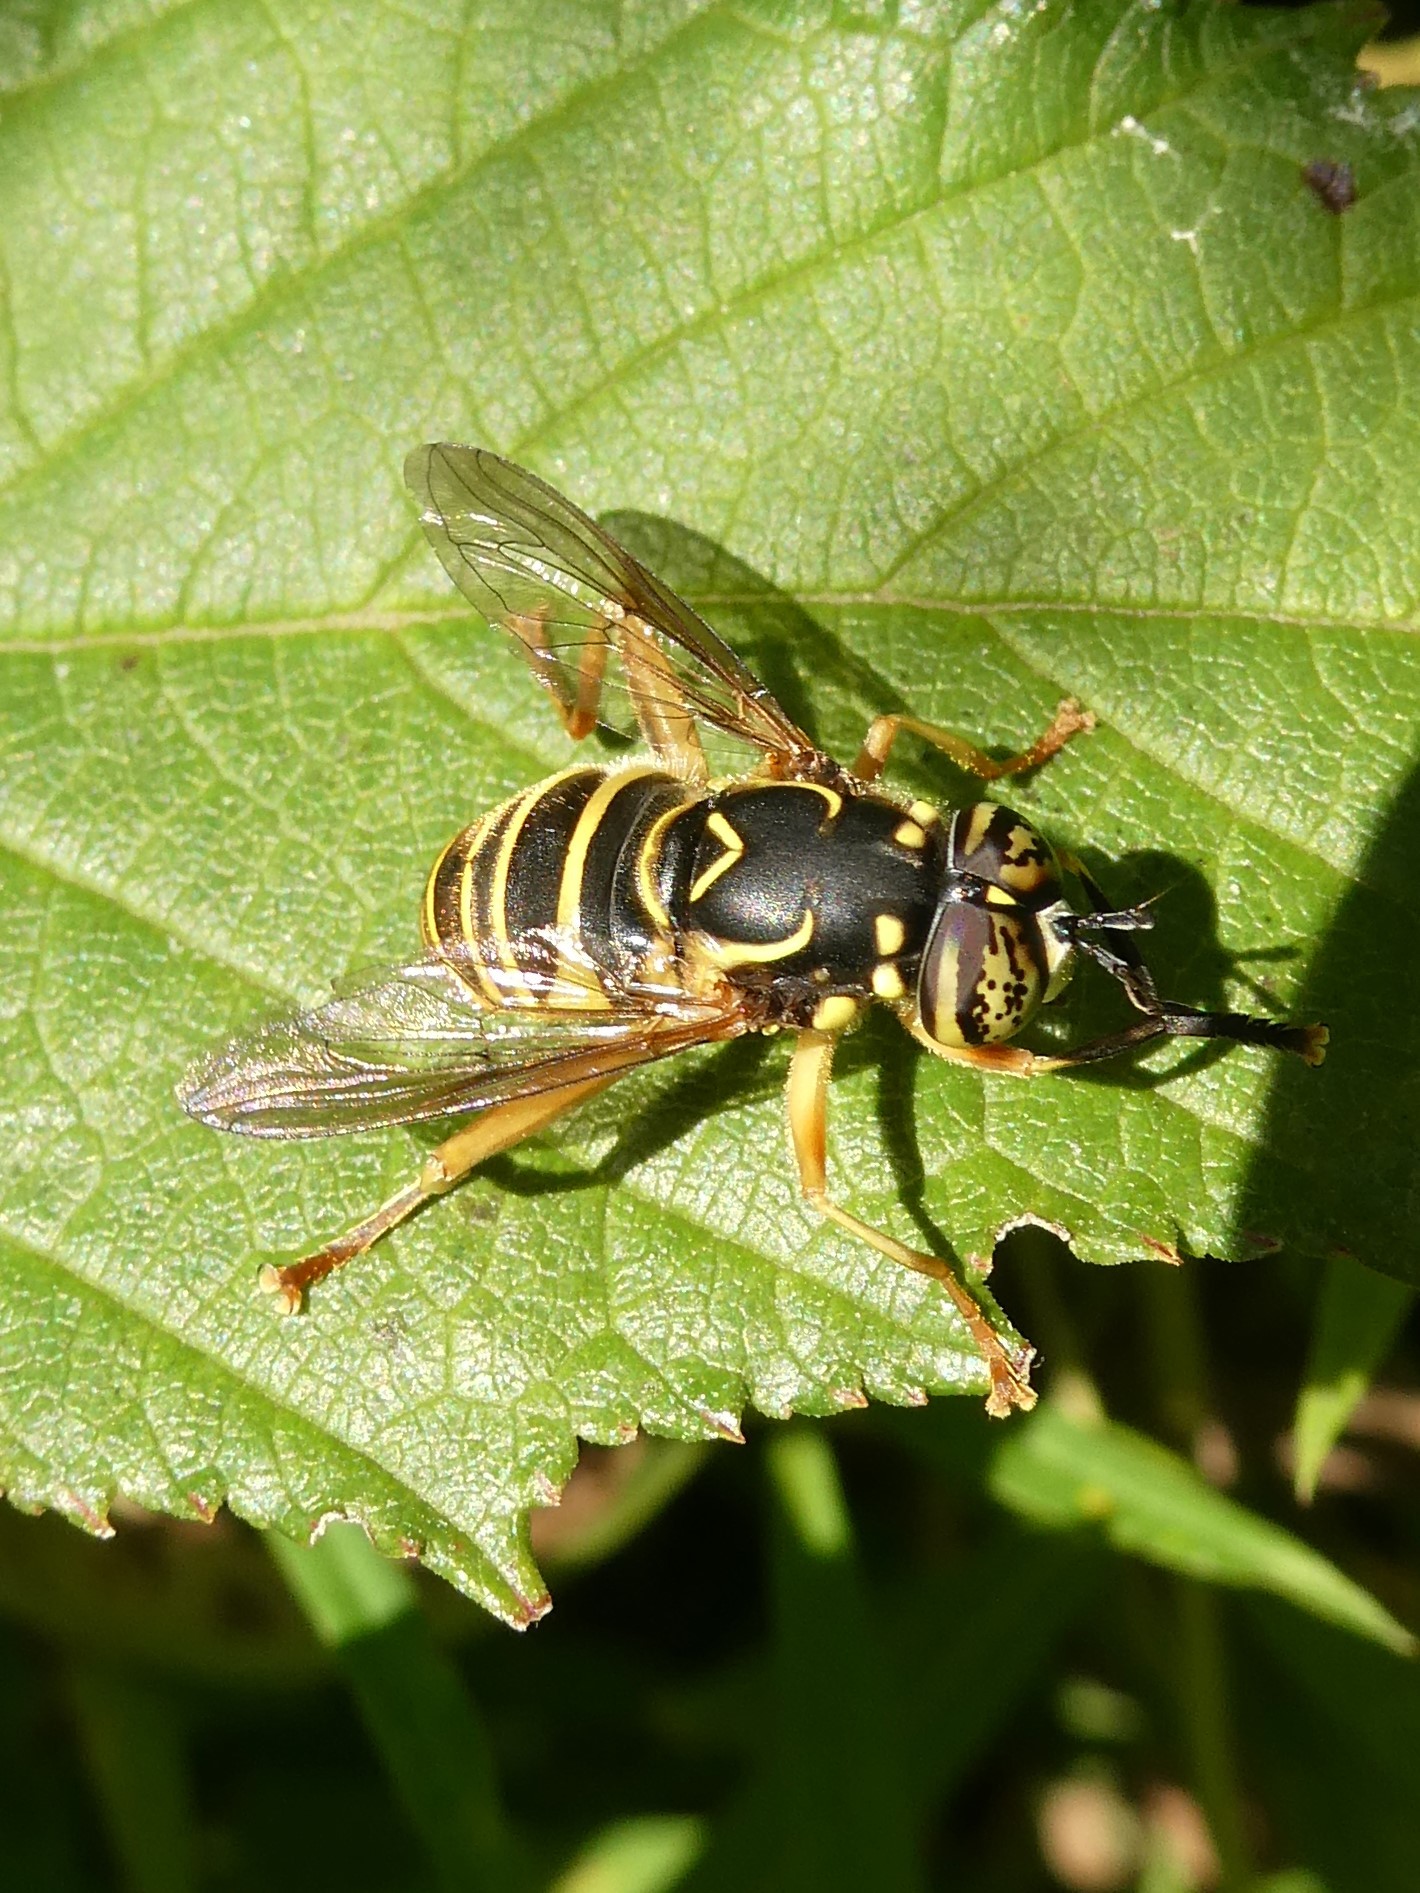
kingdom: Animalia
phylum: Arthropoda
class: Insecta
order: Diptera
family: Syrphidae
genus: Spilomyia
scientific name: Spilomyia longicornis
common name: Eastern hornet fly
